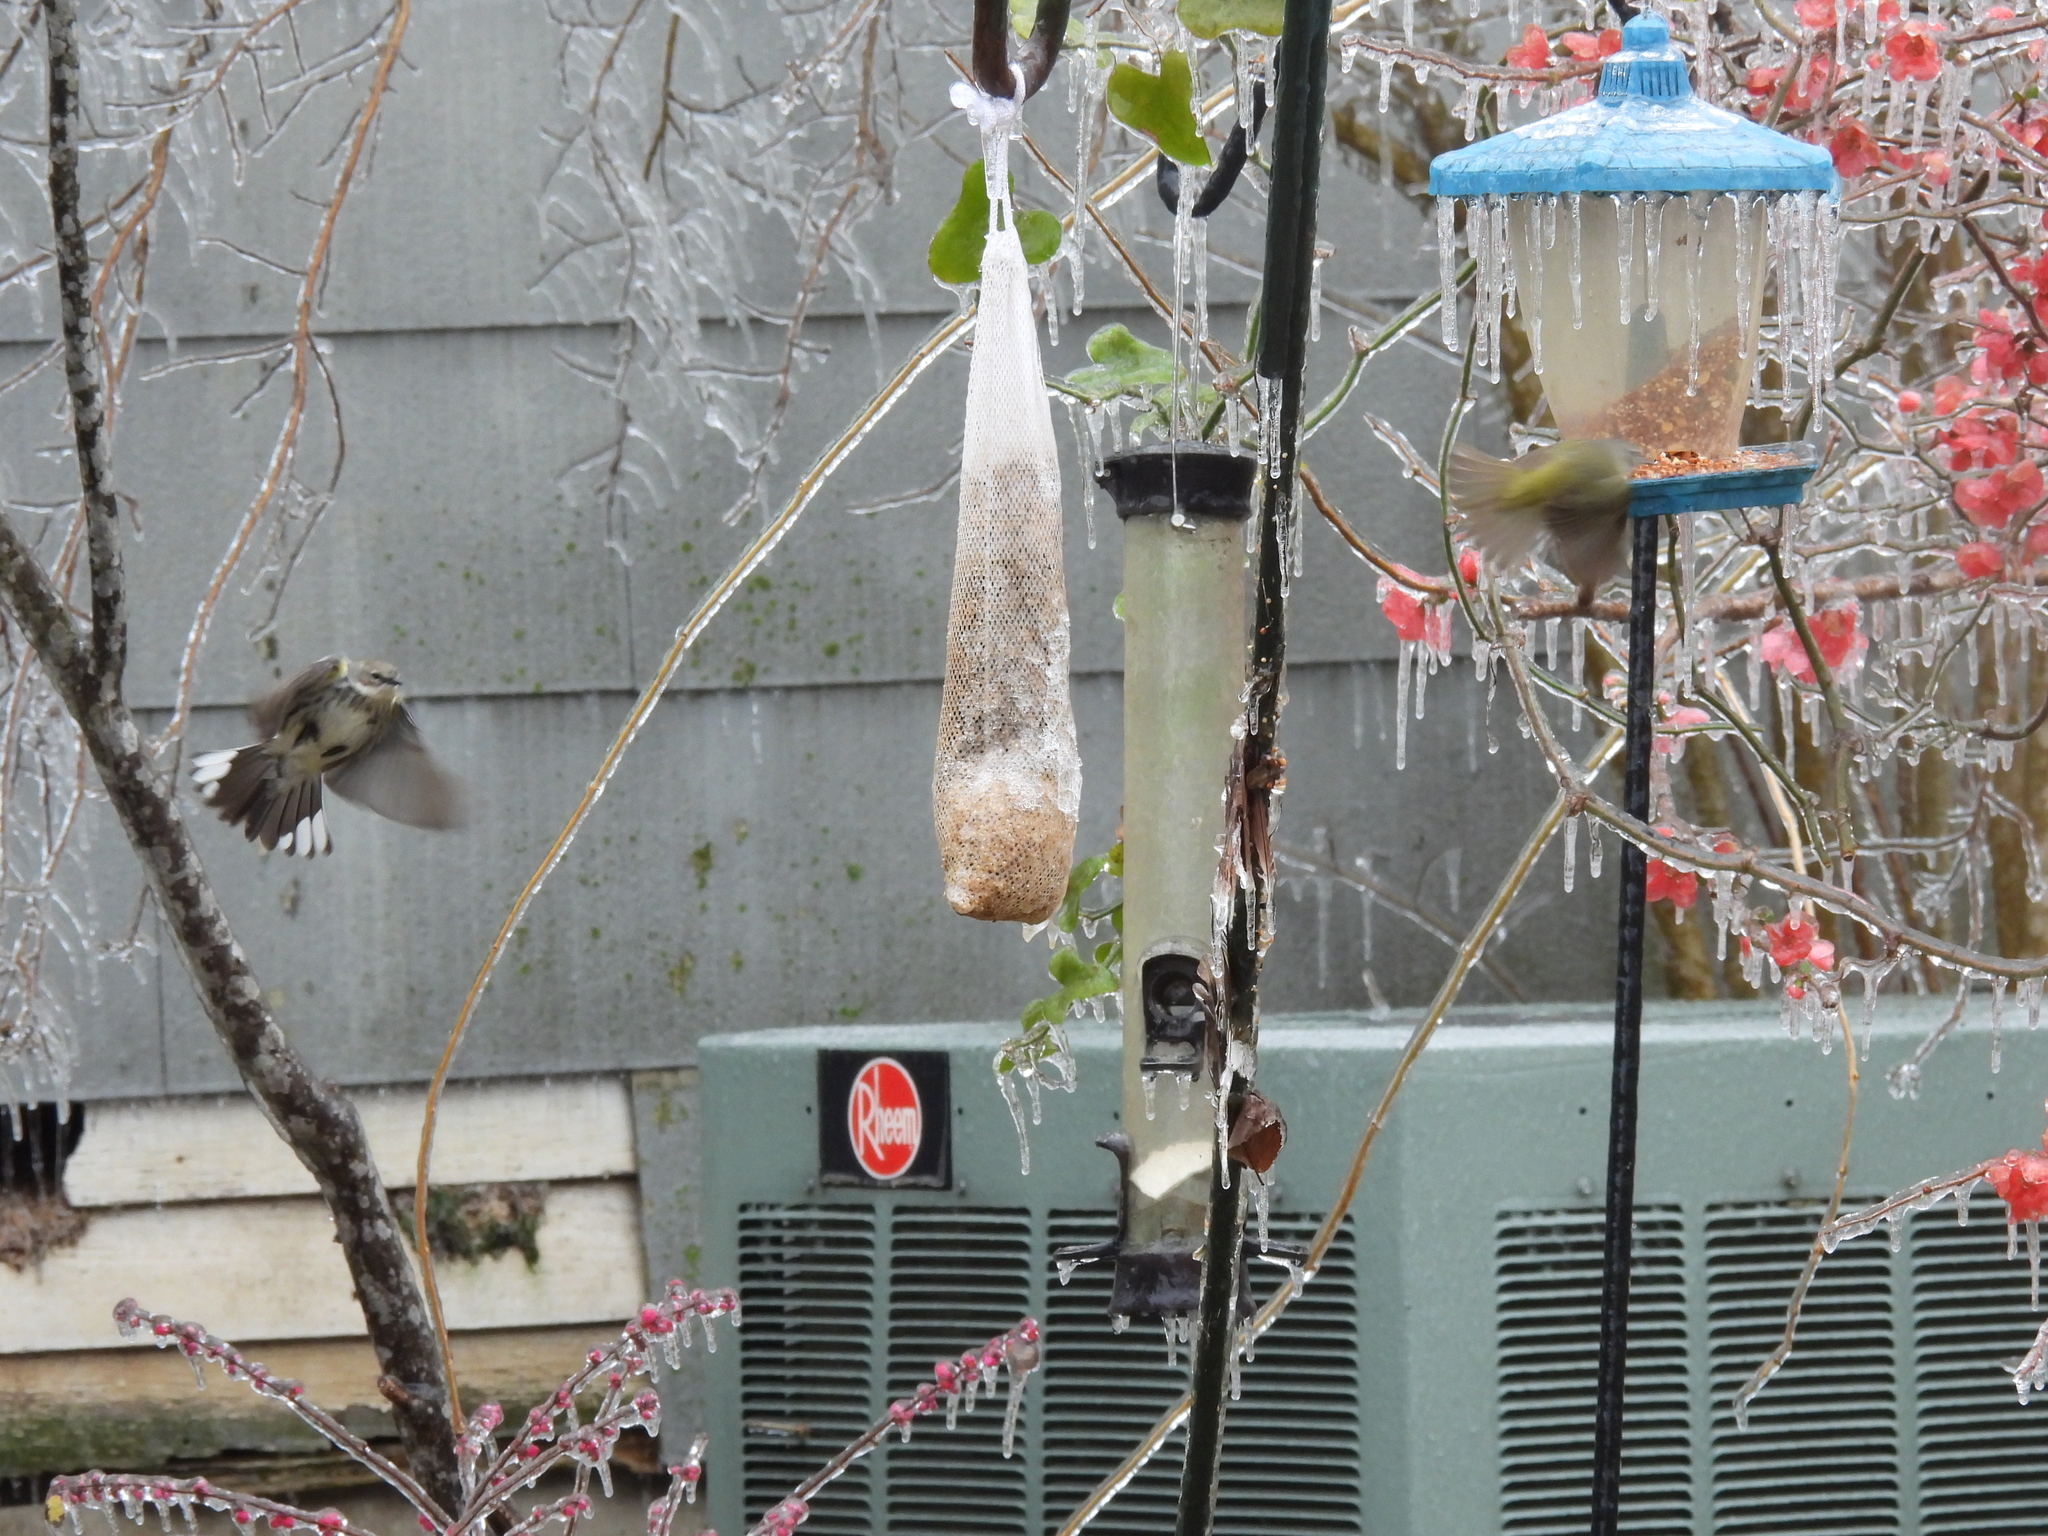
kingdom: Animalia
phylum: Chordata
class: Aves
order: Passeriformes
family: Parulidae
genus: Leiothlypis
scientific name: Leiothlypis celata
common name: Orange-crowned warbler
